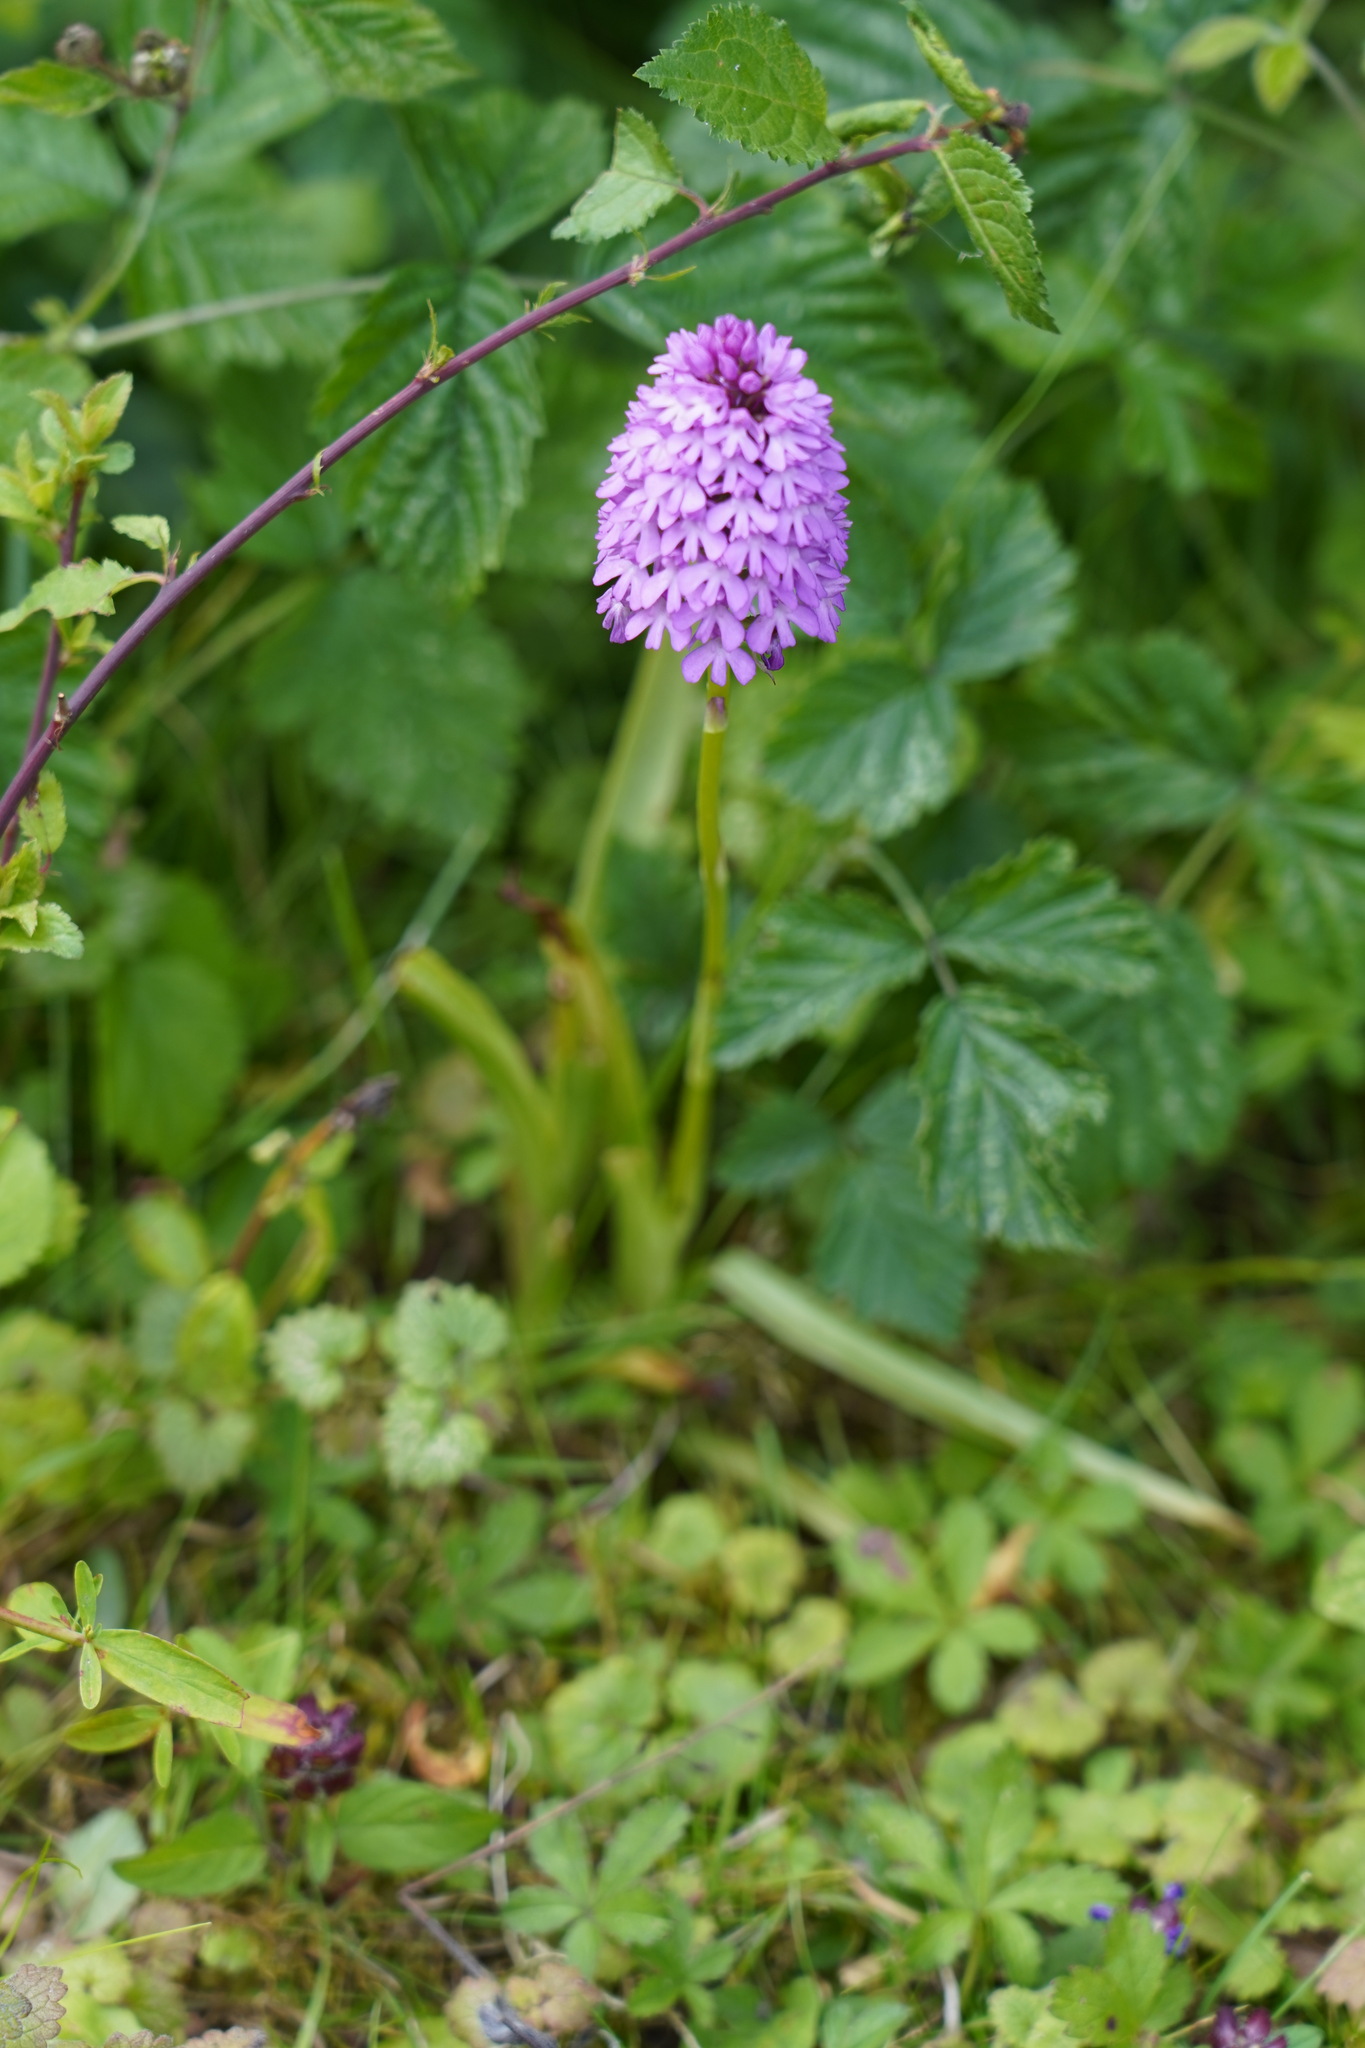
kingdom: Plantae
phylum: Tracheophyta
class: Liliopsida
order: Asparagales
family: Orchidaceae
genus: Anacamptis
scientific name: Anacamptis pyramidalis
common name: Pyramidal orchid
